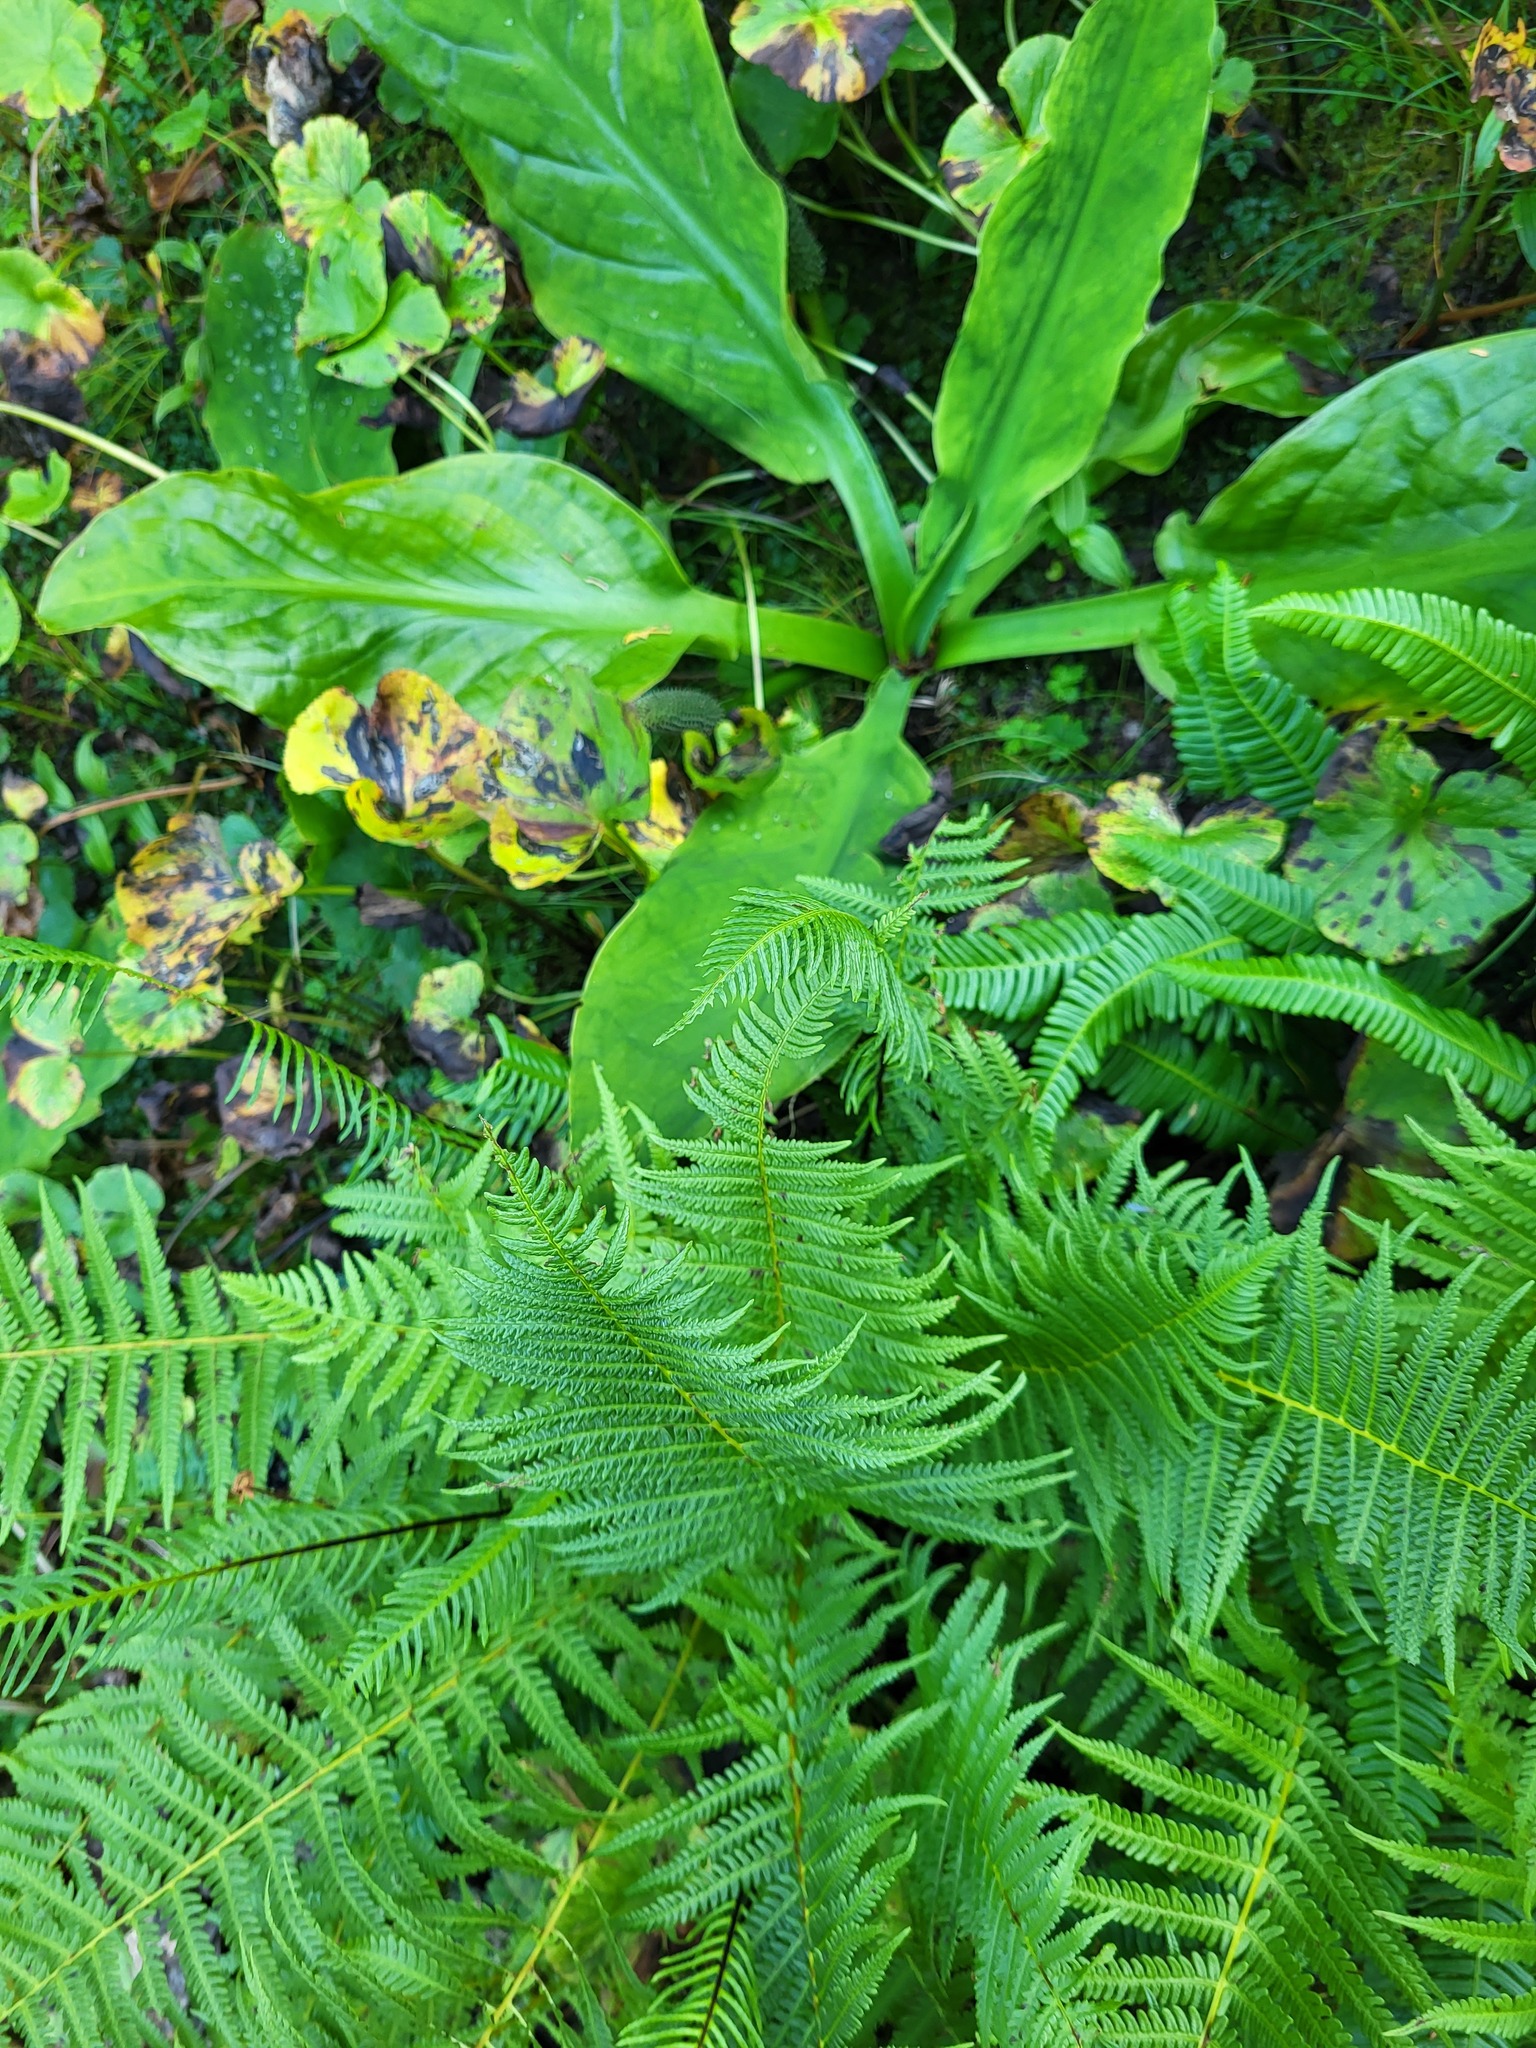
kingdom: Plantae
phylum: Tracheophyta
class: Polypodiopsida
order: Polypodiales
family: Thelypteridaceae
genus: Oreopteris
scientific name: Oreopteris quelpartensis
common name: Mountain fern
